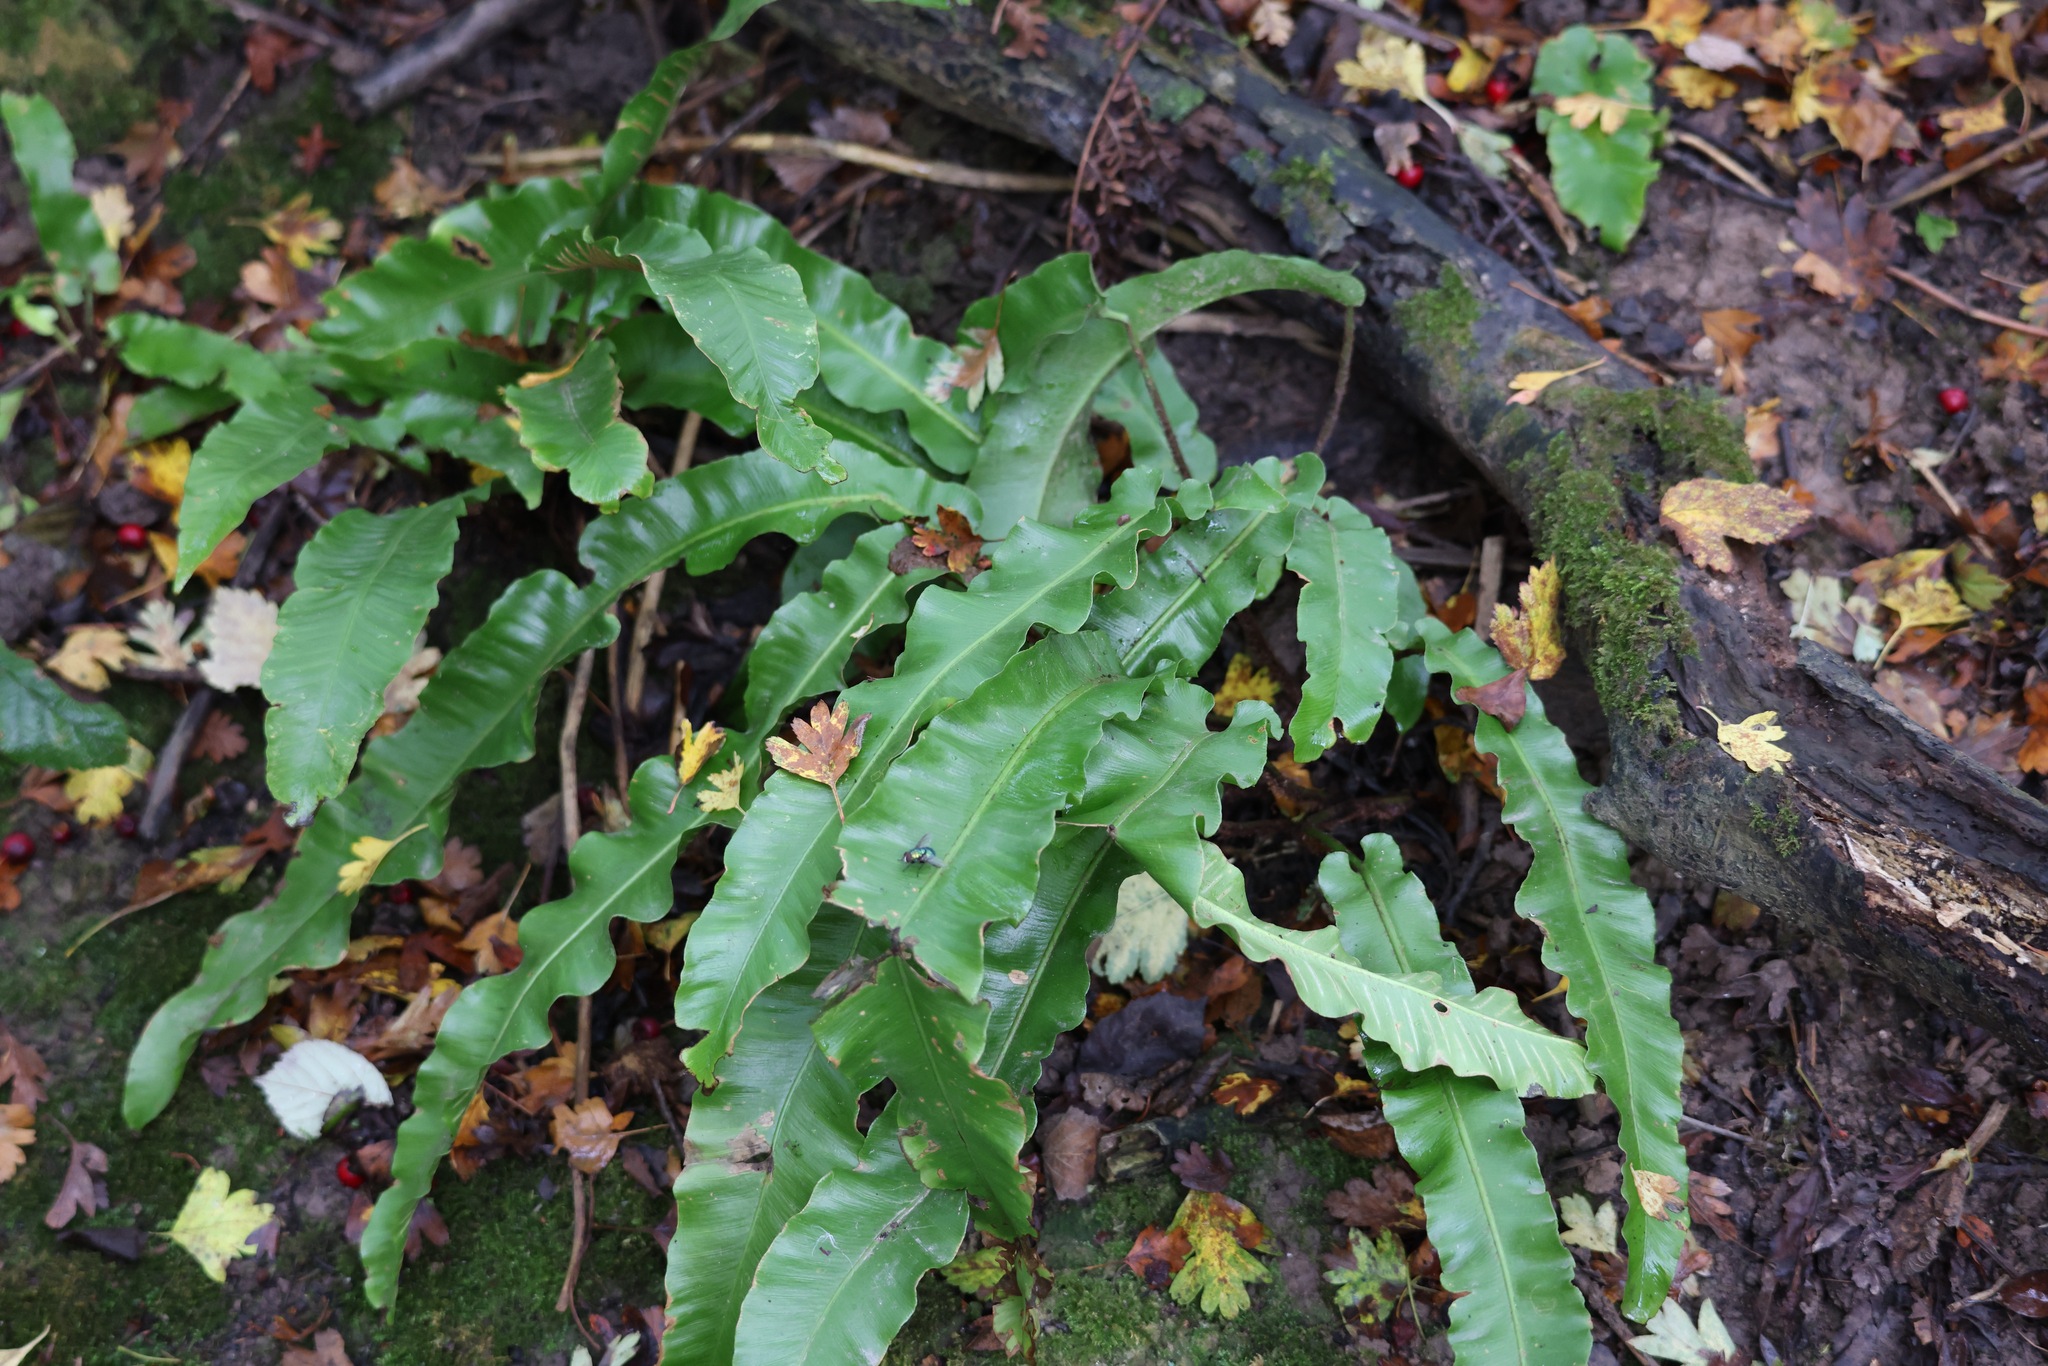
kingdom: Plantae
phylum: Tracheophyta
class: Polypodiopsida
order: Polypodiales
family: Aspleniaceae
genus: Asplenium
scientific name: Asplenium scolopendrium
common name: Hart's-tongue fern
